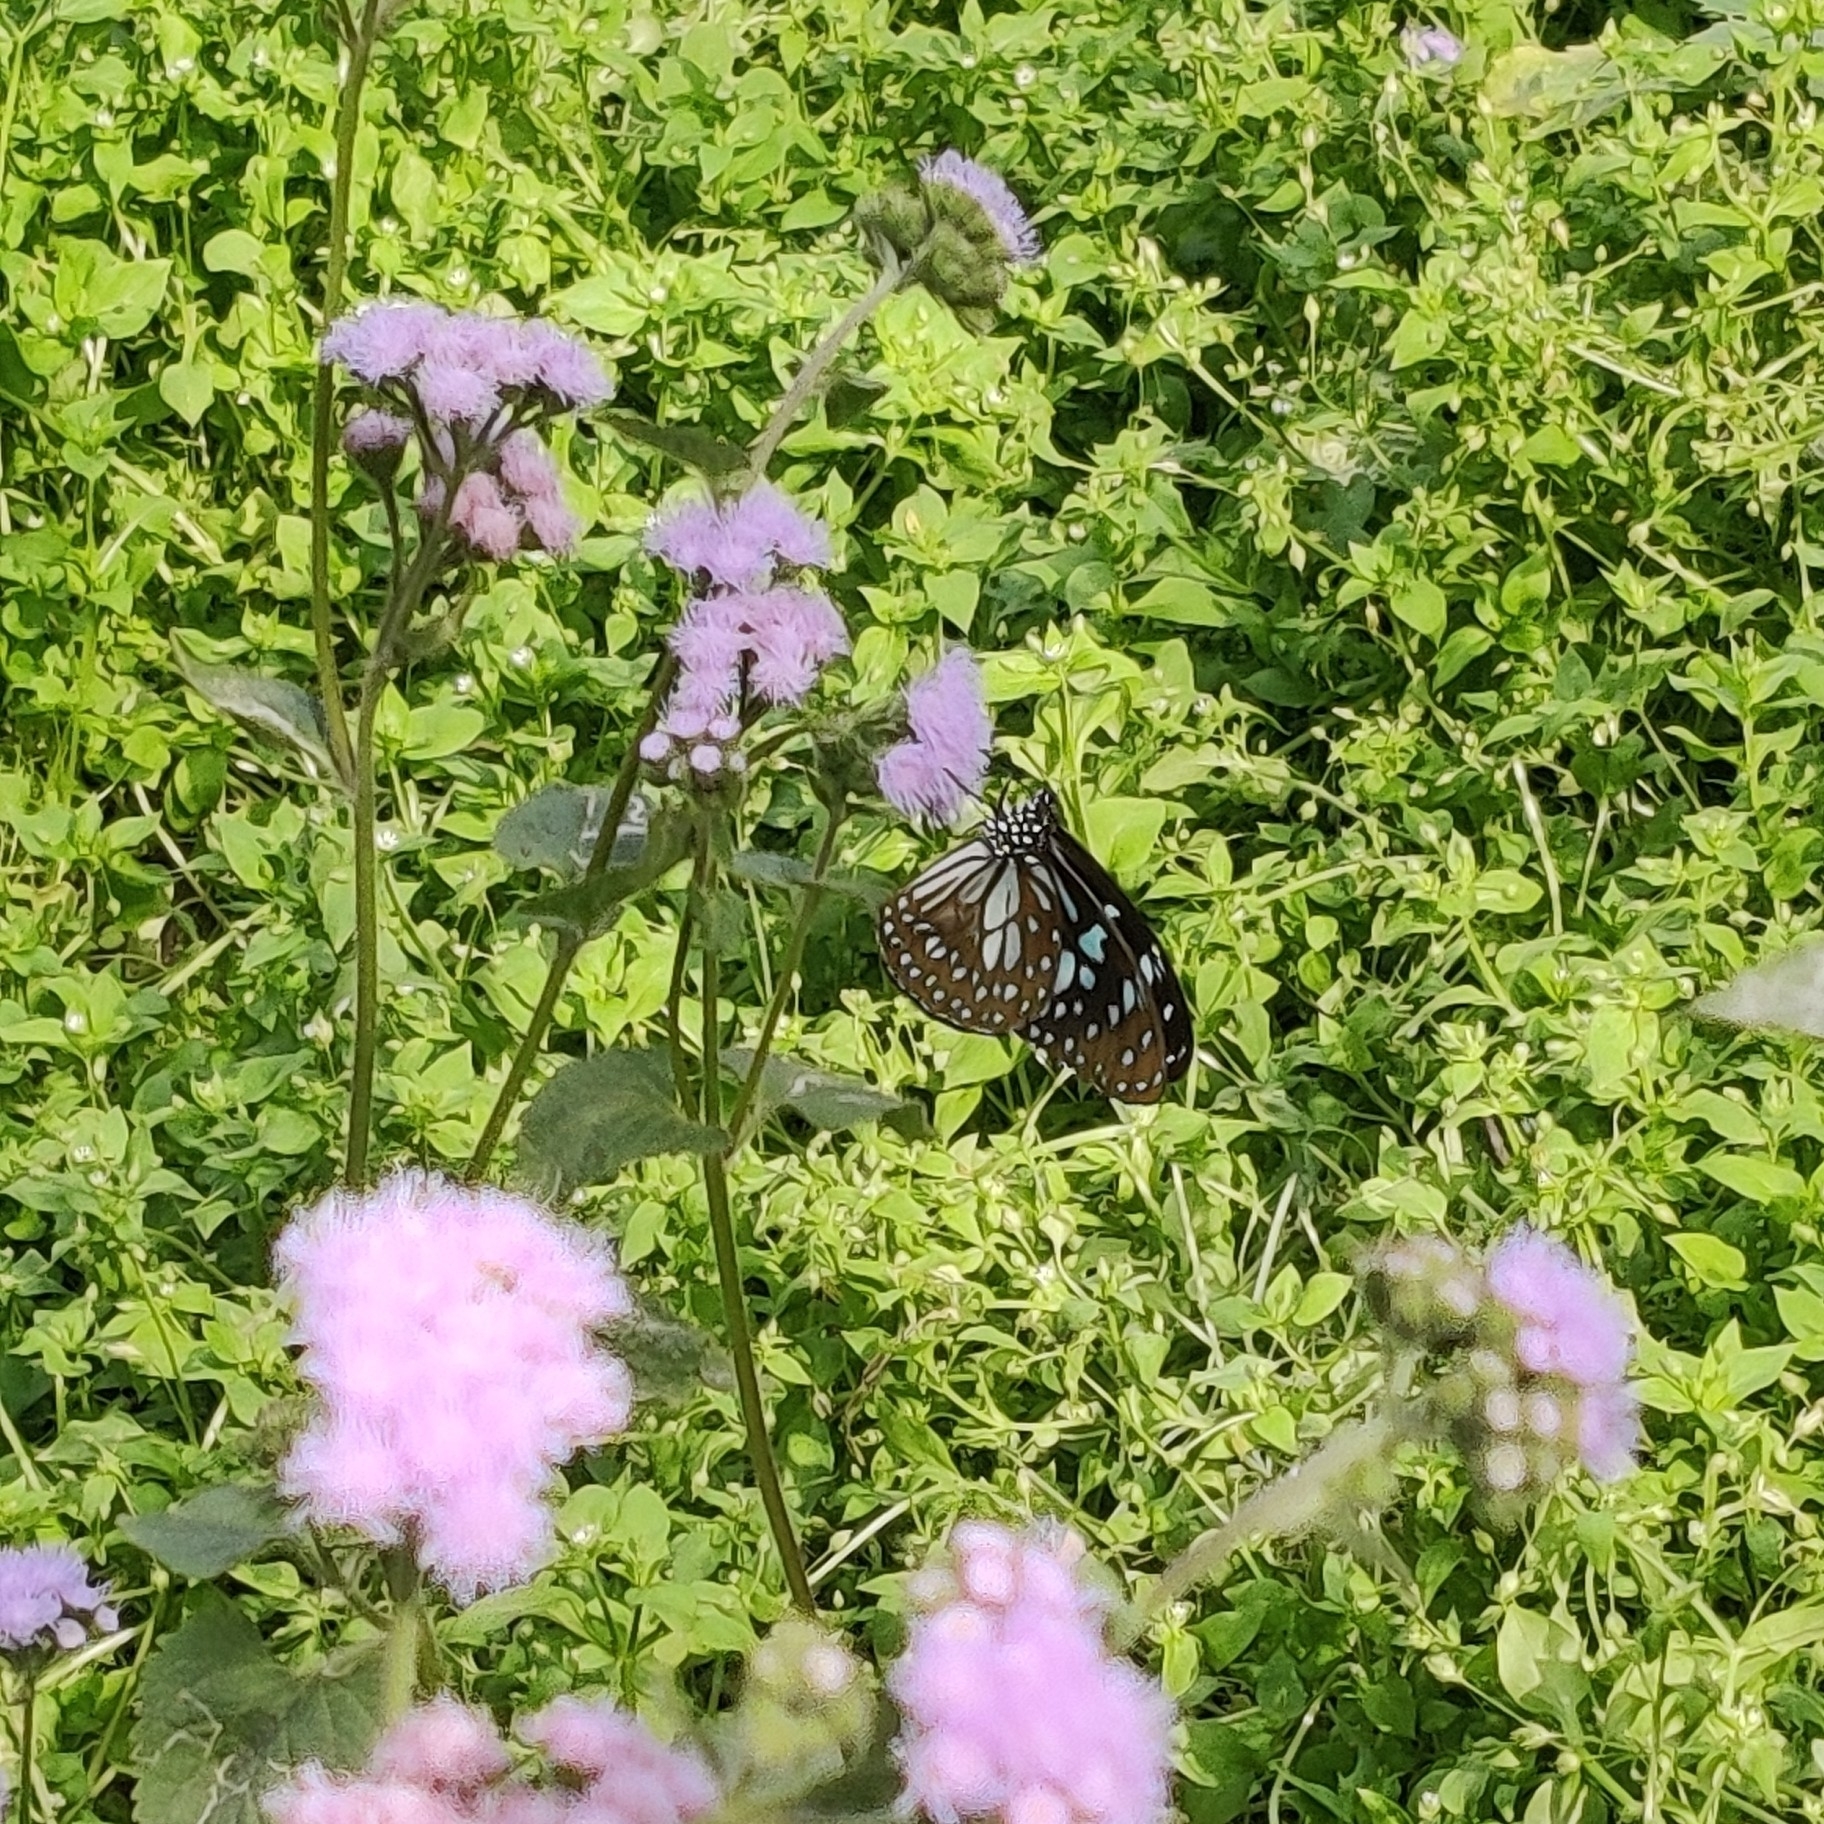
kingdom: Animalia
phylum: Arthropoda
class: Insecta
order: Lepidoptera
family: Nymphalidae
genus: Tirumala
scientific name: Tirumala limniace
